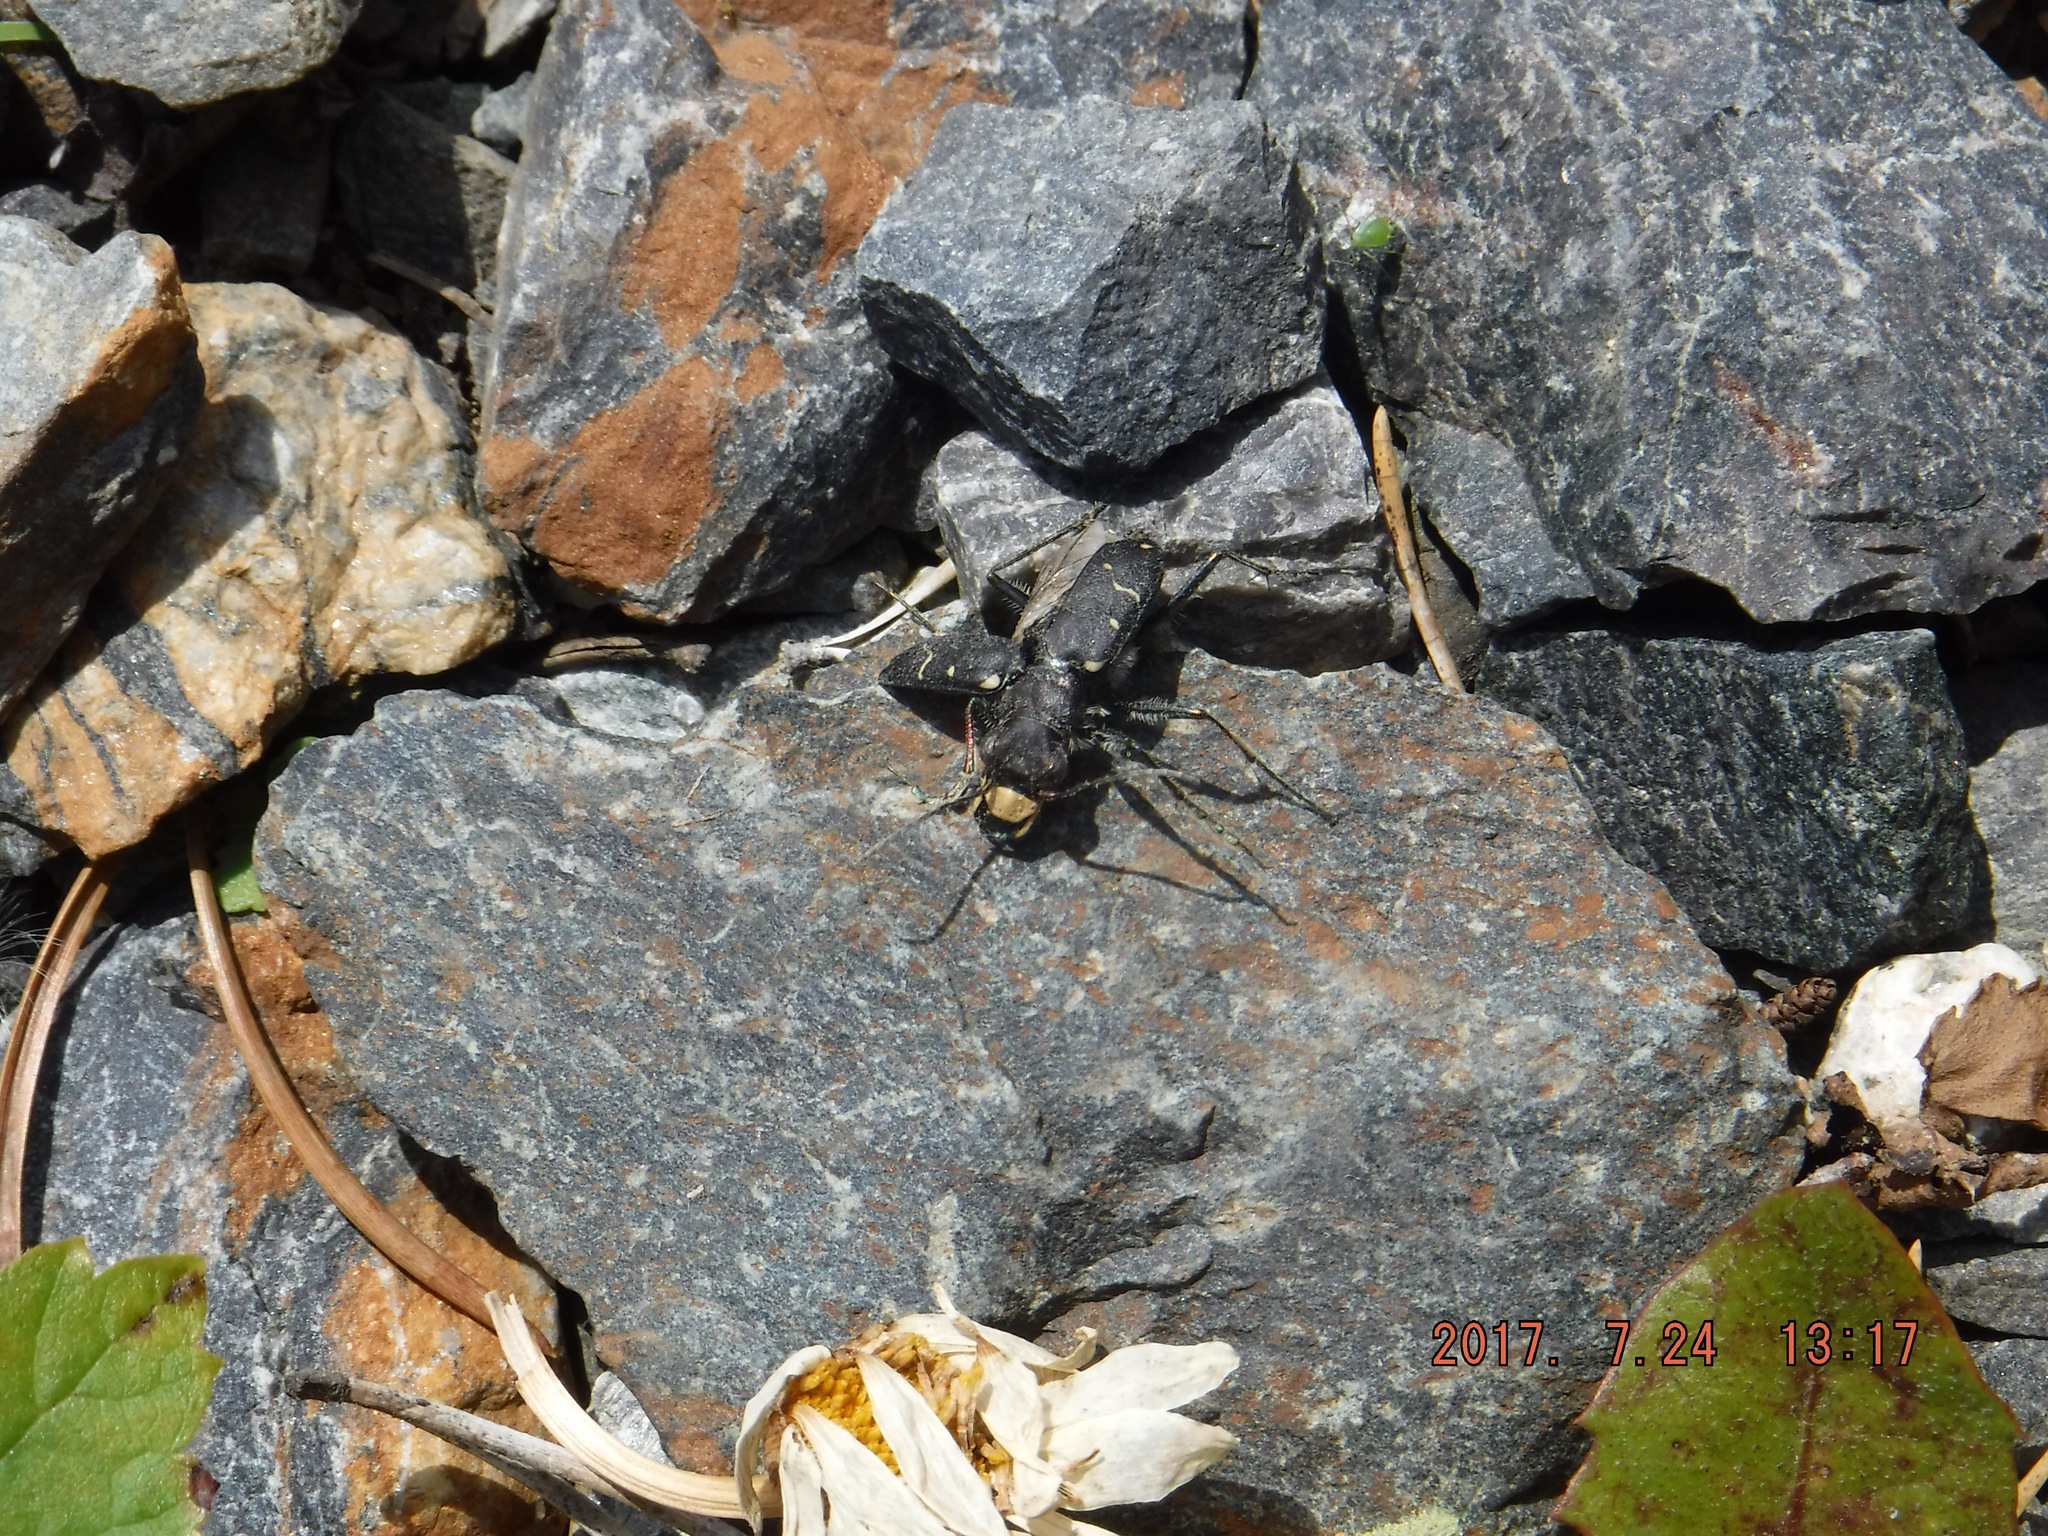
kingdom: Animalia
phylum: Arthropoda
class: Insecta
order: Coleoptera
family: Carabidae
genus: Cicindela
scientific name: Cicindela longilabris
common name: Boreal long-lipped tiger beetle
